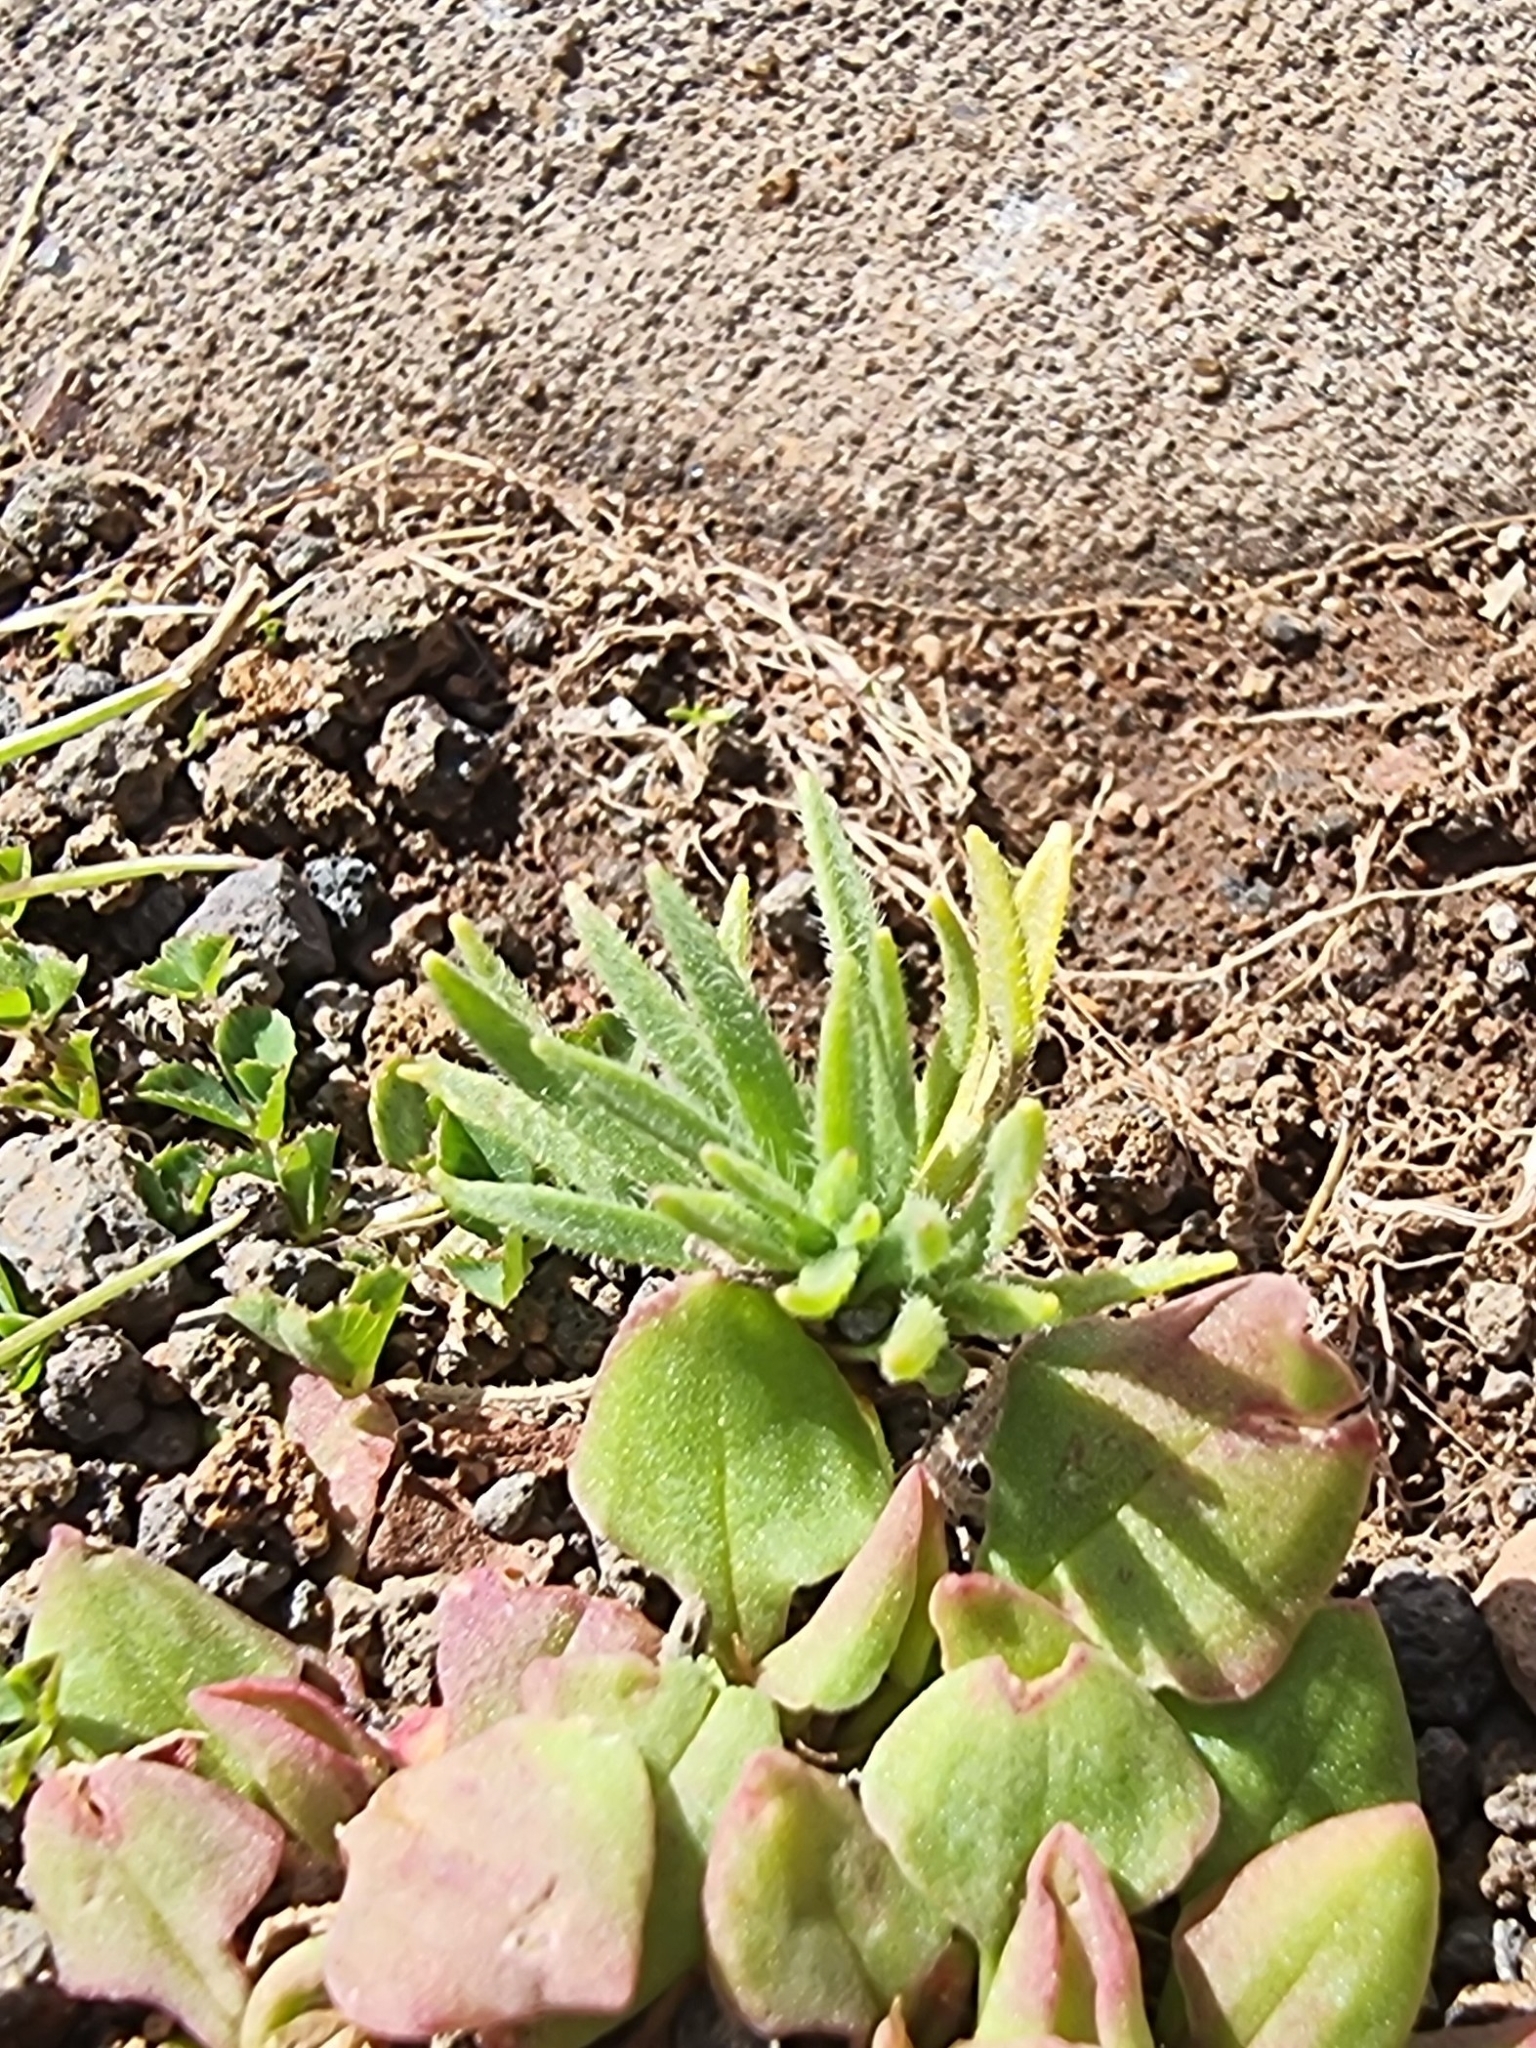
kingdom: Plantae
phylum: Tracheophyta
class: Magnoliopsida
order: Lamiales
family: Plantaginaceae
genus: Plantago
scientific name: Plantago arborescens
